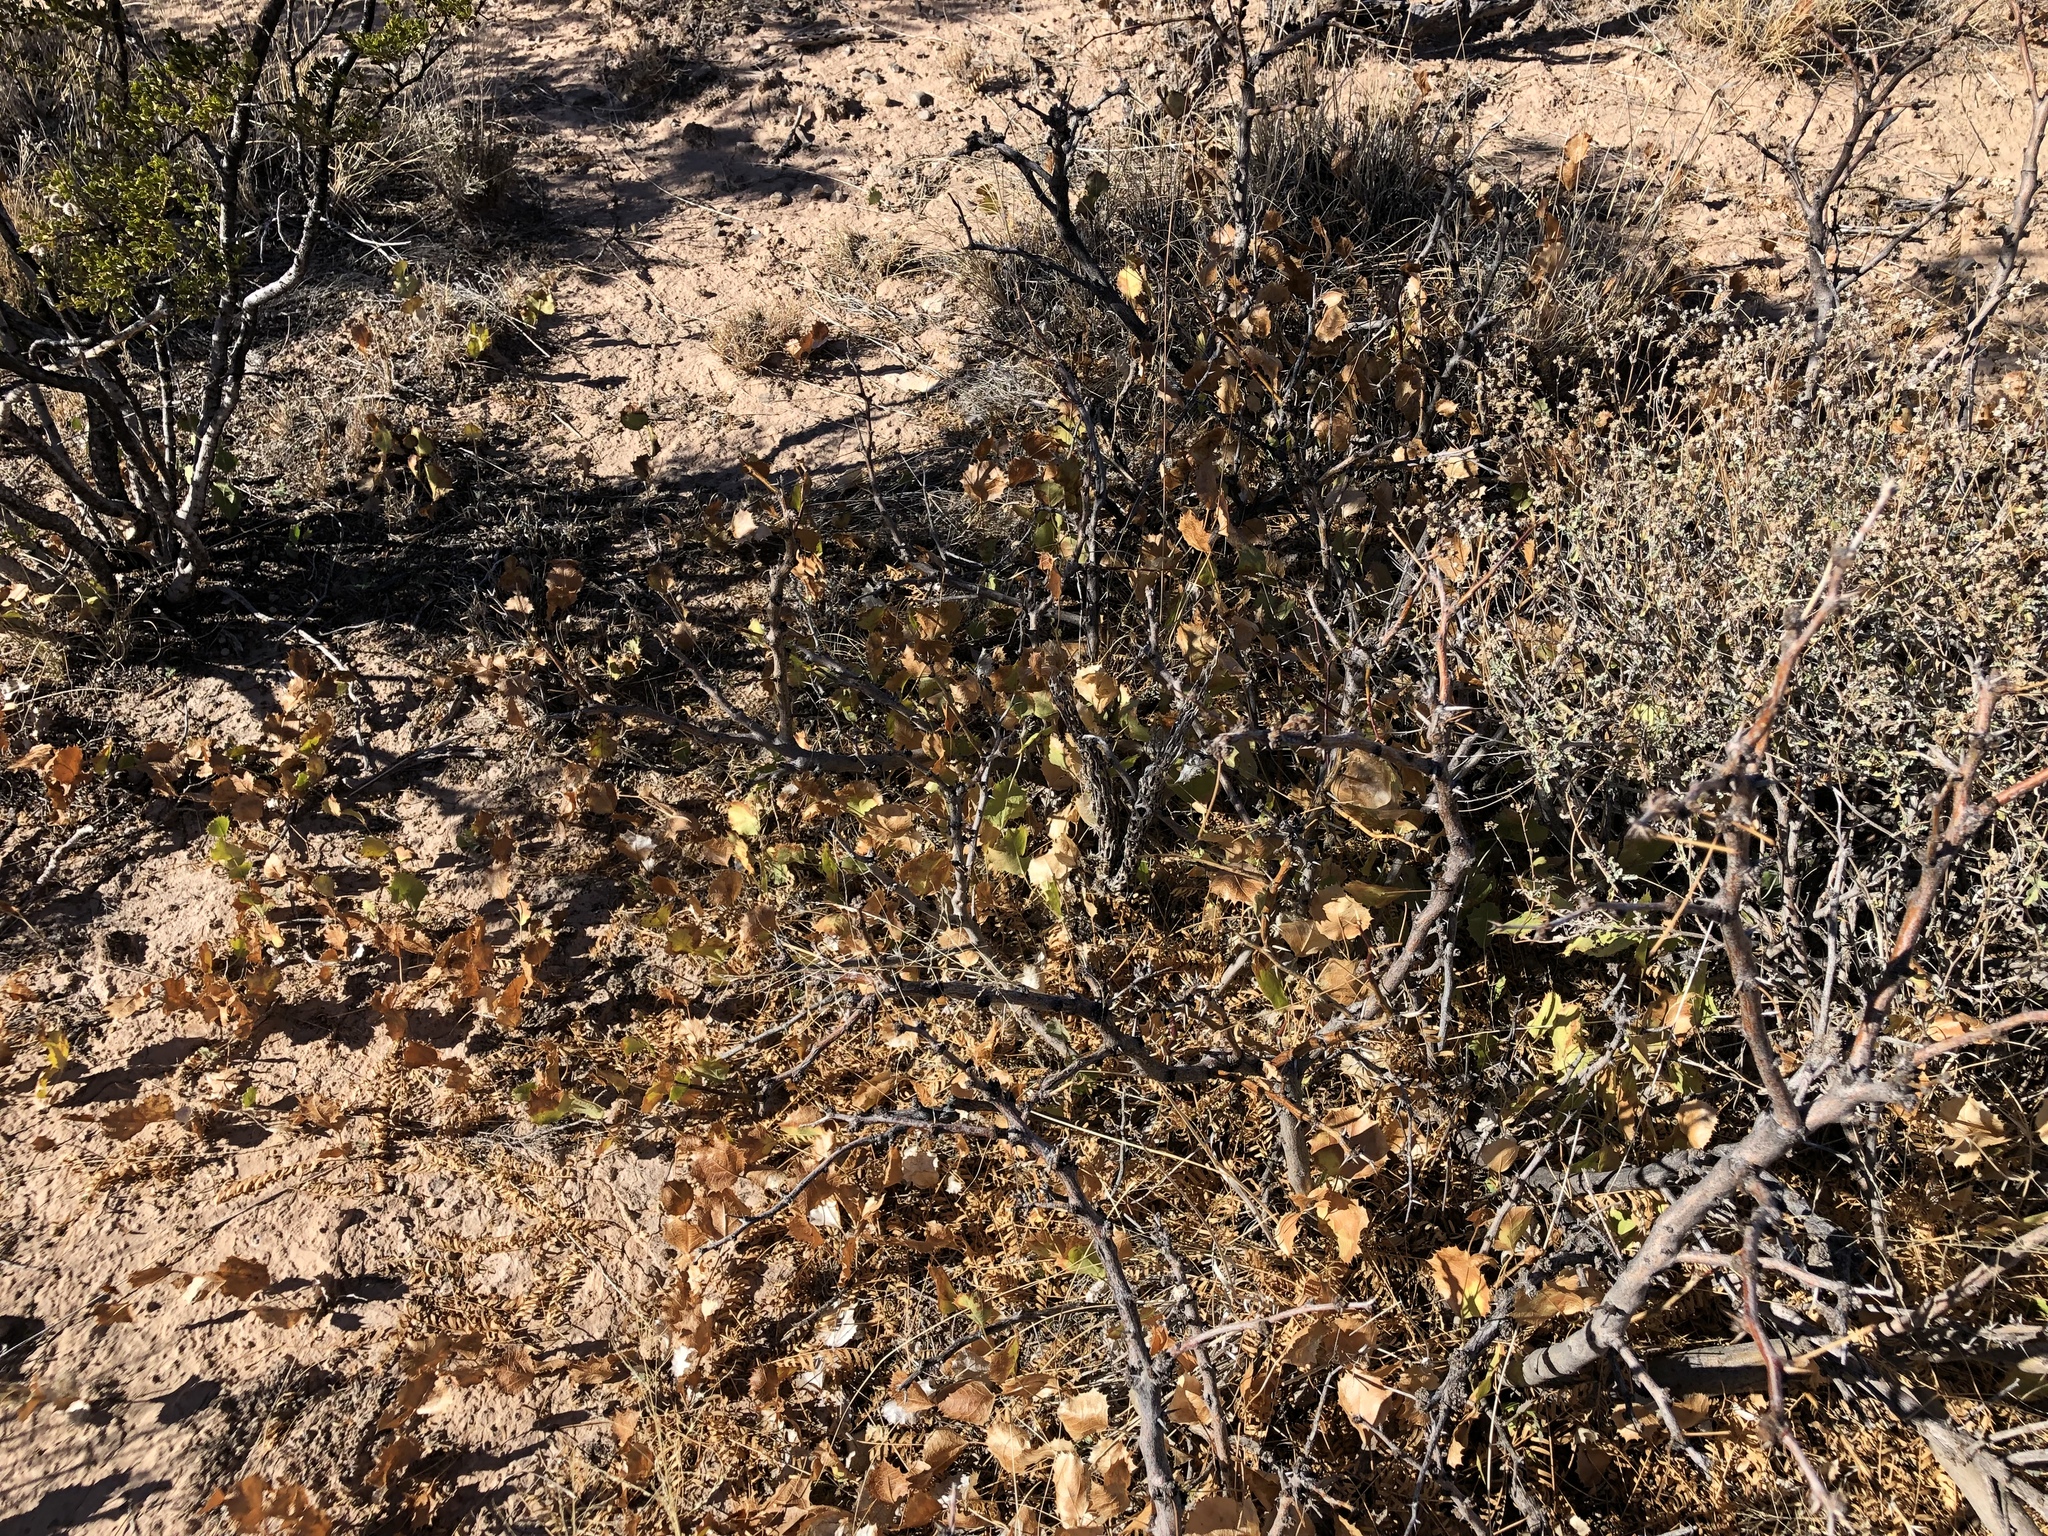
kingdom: Plantae
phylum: Tracheophyta
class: Magnoliopsida
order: Asterales
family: Asteraceae
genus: Acourtia
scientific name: Acourtia nana
